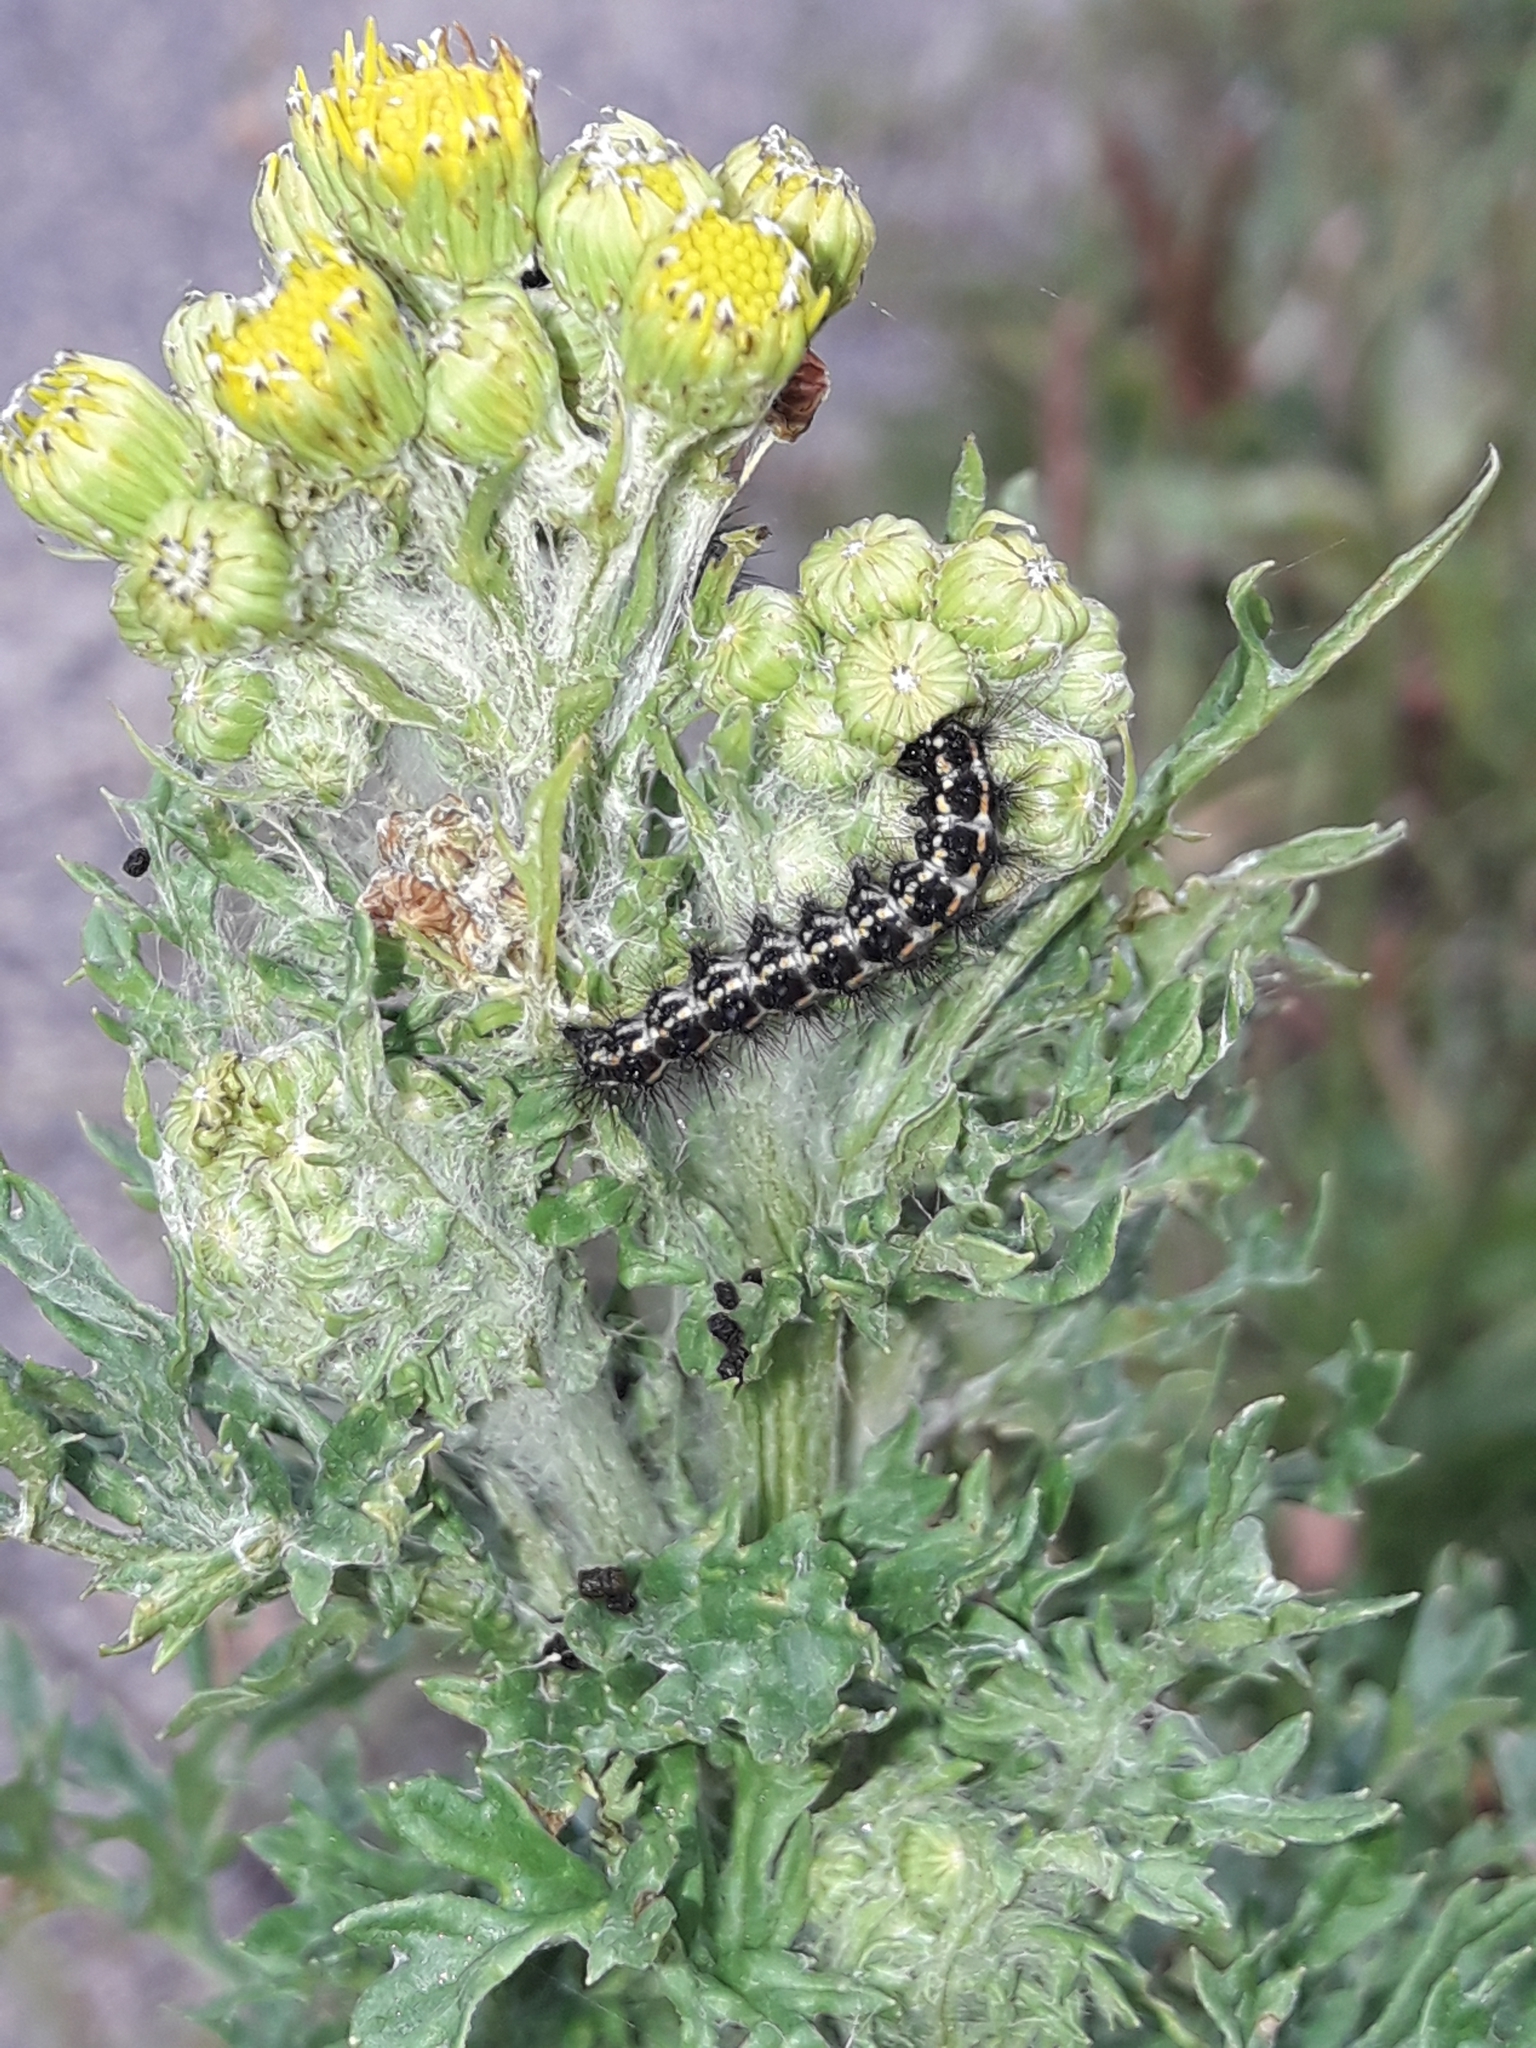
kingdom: Animalia
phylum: Arthropoda
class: Insecta
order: Lepidoptera
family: Erebidae
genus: Nyctemera
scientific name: Nyctemera annulatum
